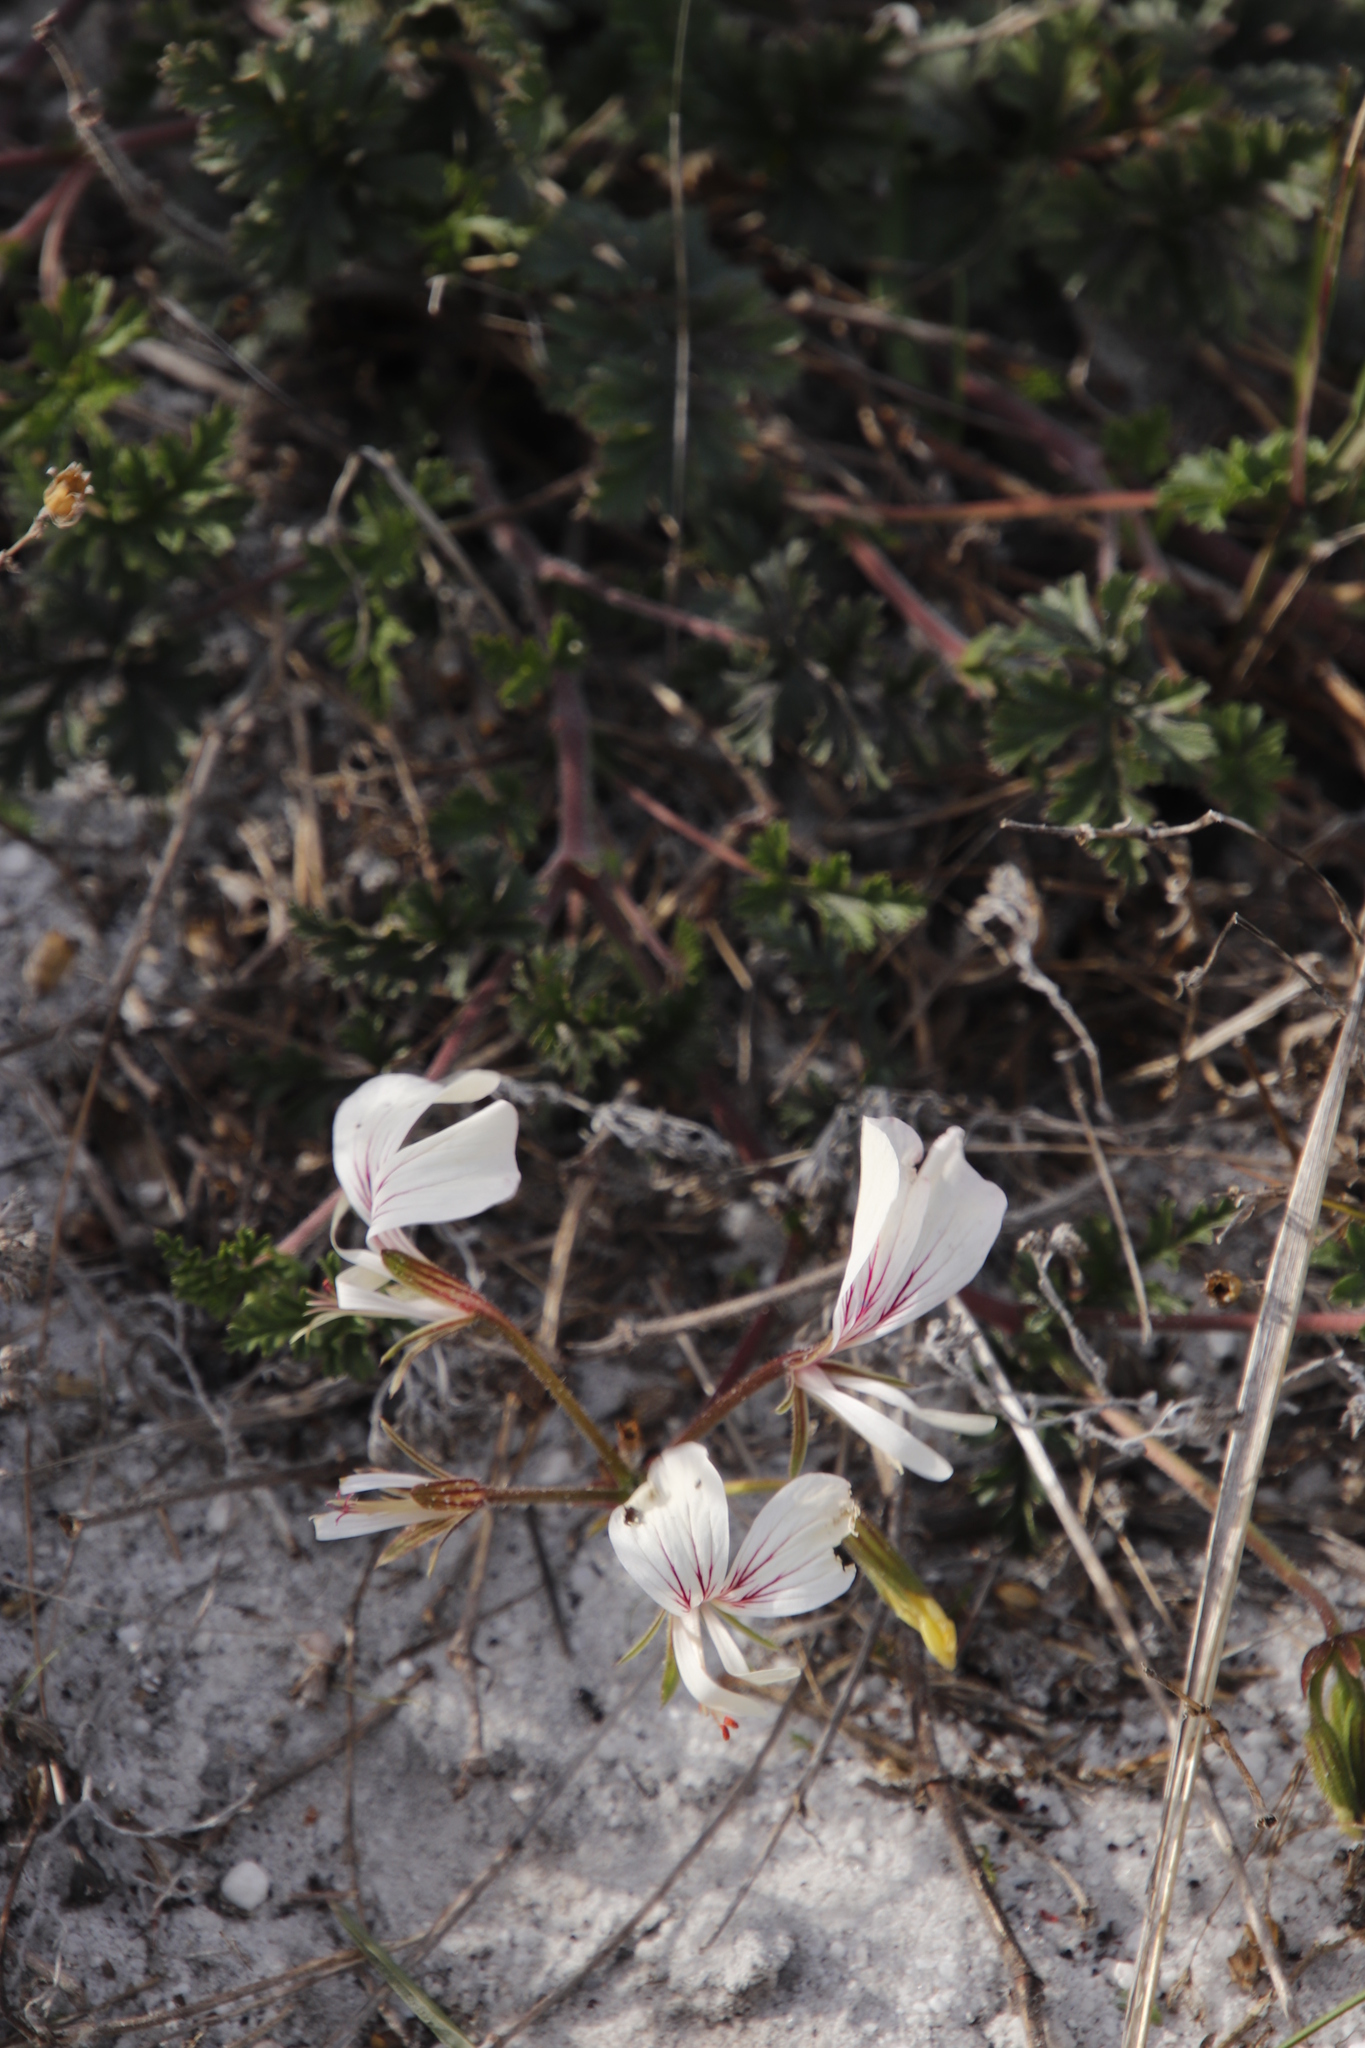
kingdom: Plantae
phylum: Tracheophyta
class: Magnoliopsida
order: Geraniales
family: Geraniaceae
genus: Pelargonium
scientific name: Pelargonium longicaule
